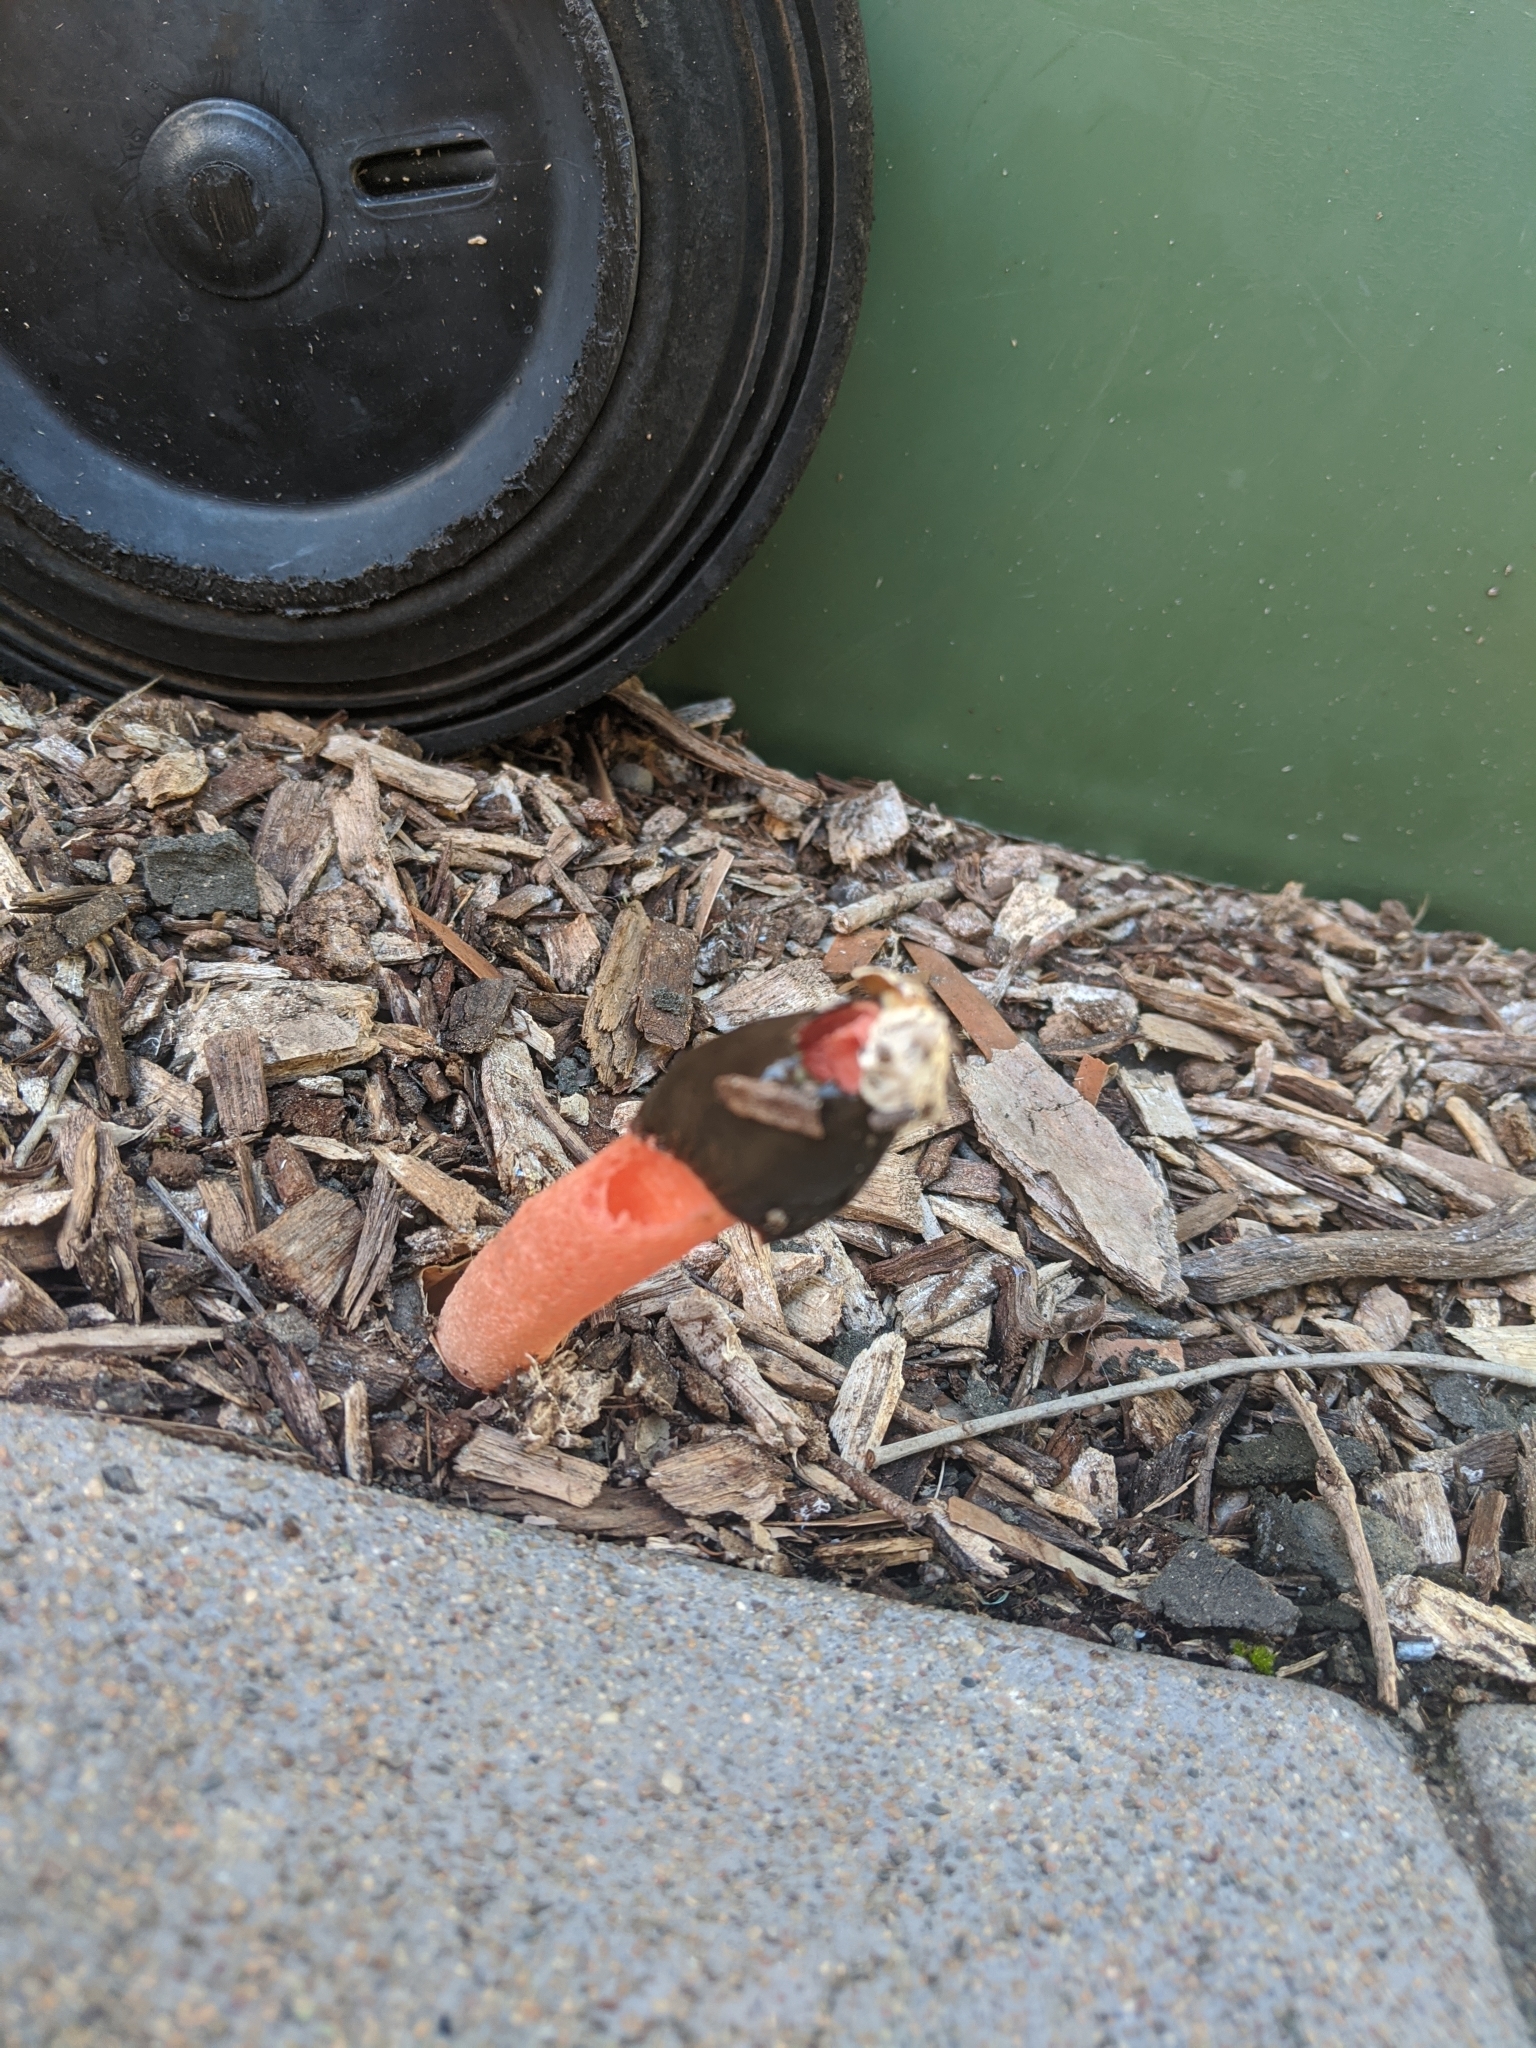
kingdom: Fungi
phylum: Basidiomycota
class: Agaricomycetes
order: Phallales
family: Phallaceae
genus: Phallus
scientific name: Phallus rubicundus
